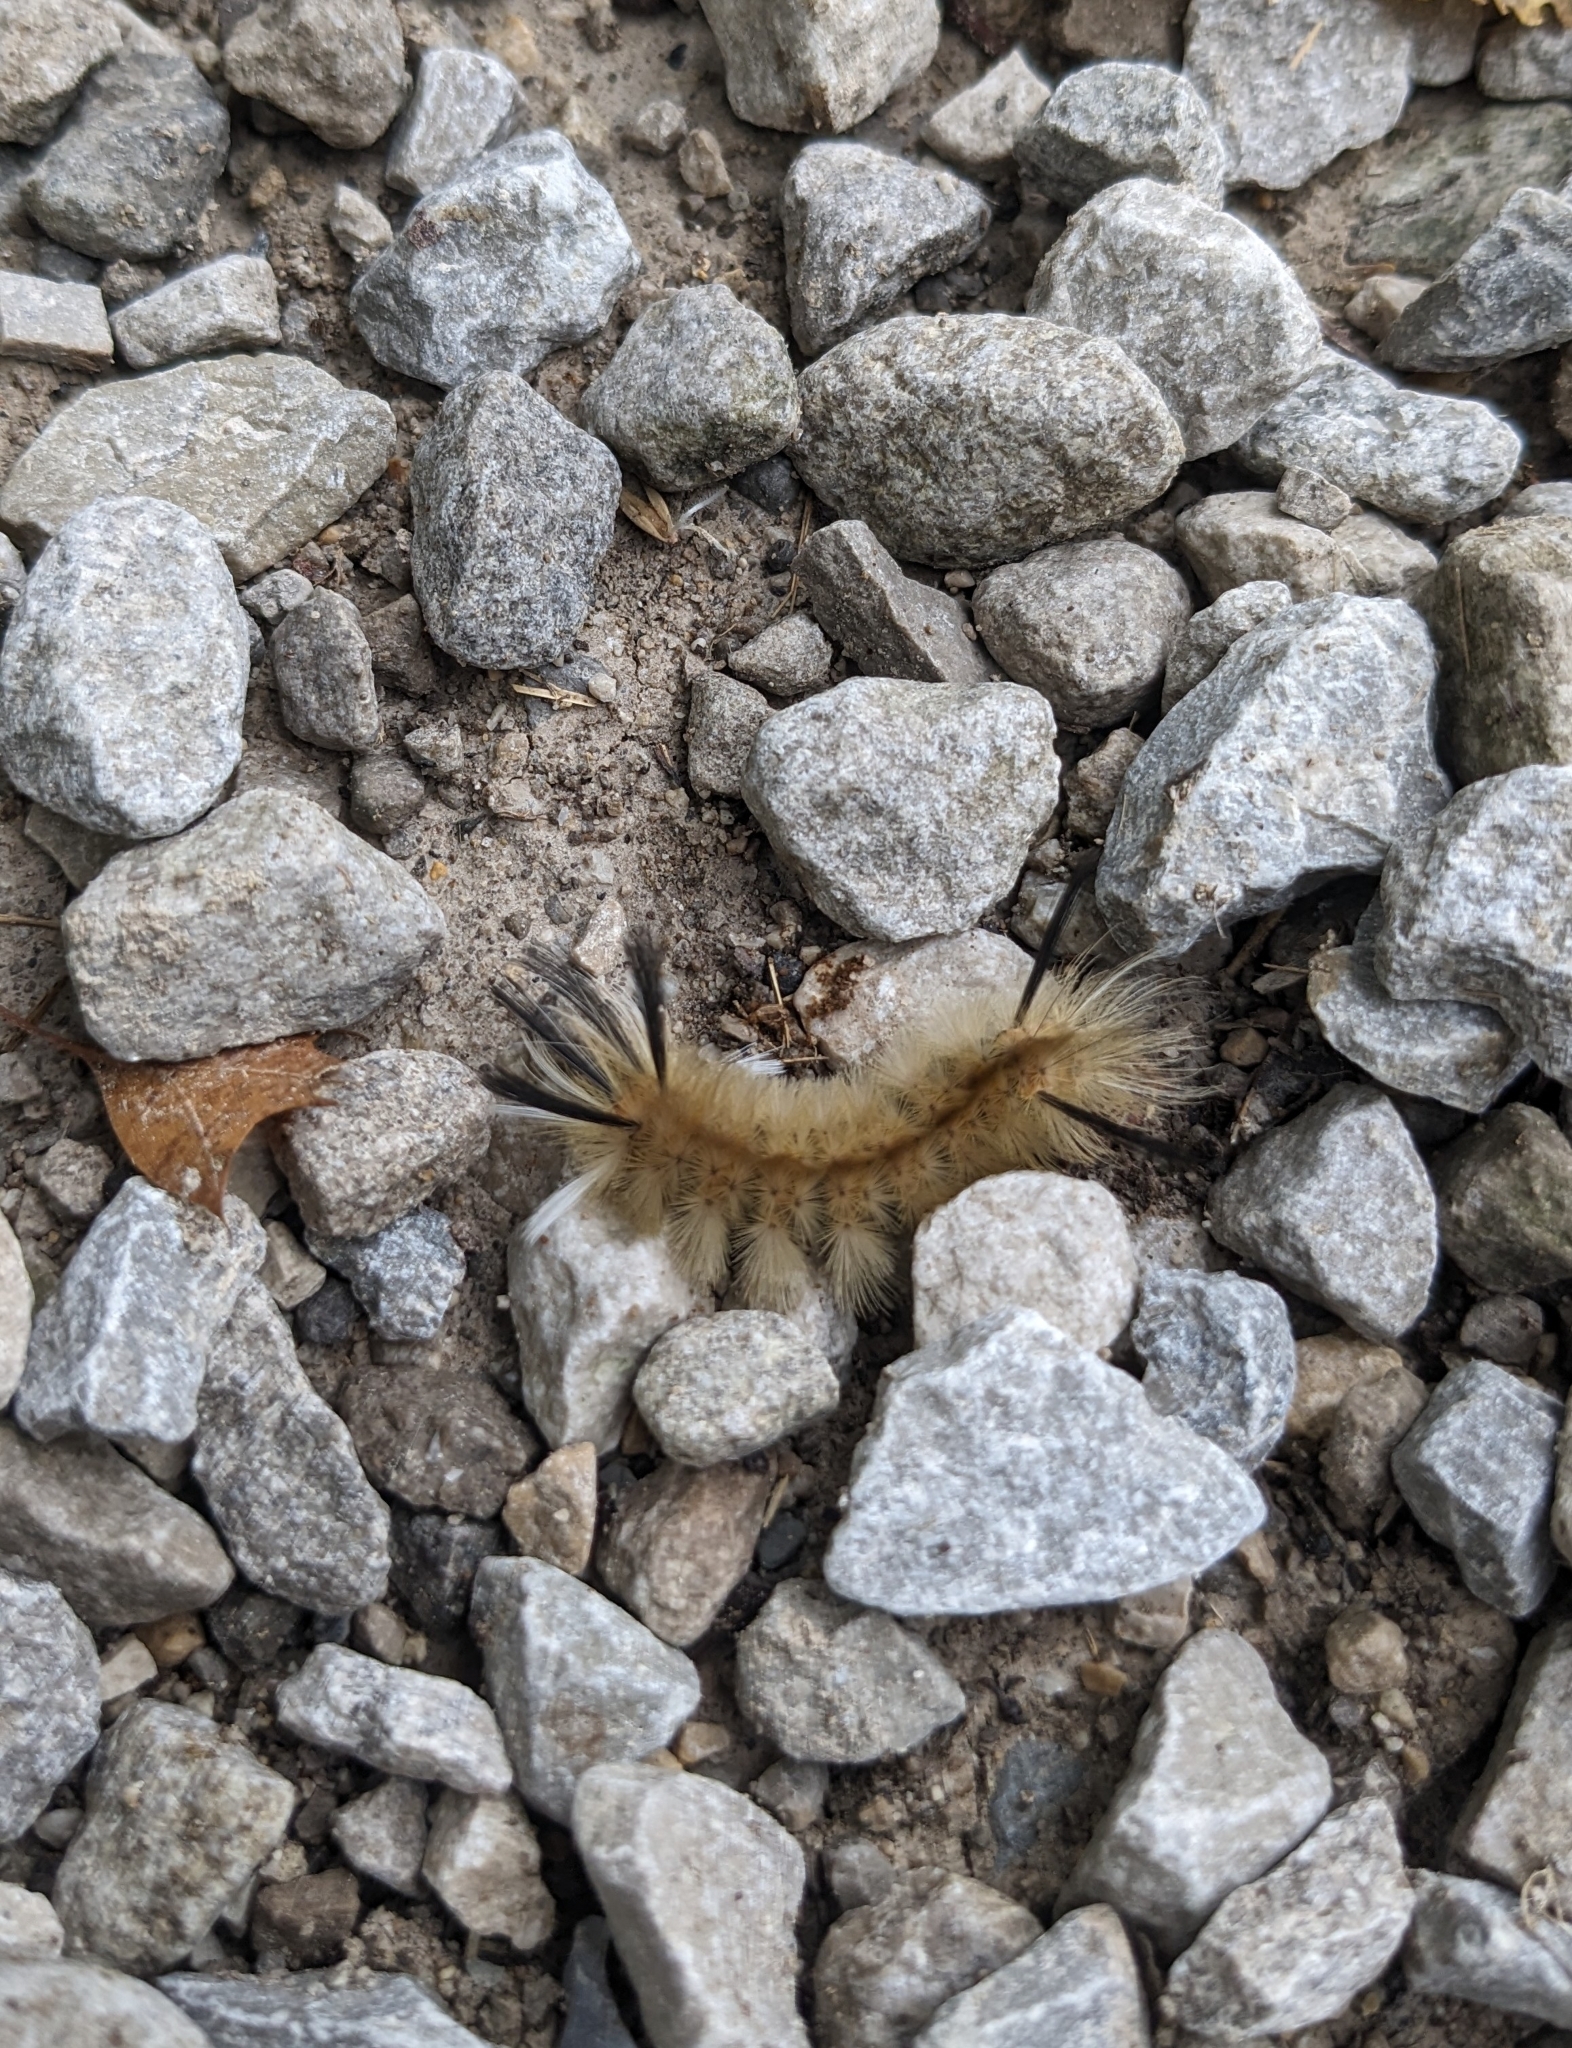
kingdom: Animalia
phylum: Arthropoda
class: Insecta
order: Lepidoptera
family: Erebidae
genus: Halysidota
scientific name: Halysidota tessellaris
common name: Banded tussock moth
